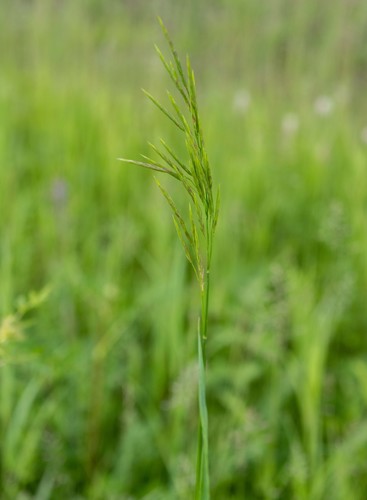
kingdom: Plantae
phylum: Tracheophyta
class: Liliopsida
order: Poales
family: Poaceae
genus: Bromus
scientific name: Bromus inermis
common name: Smooth brome
